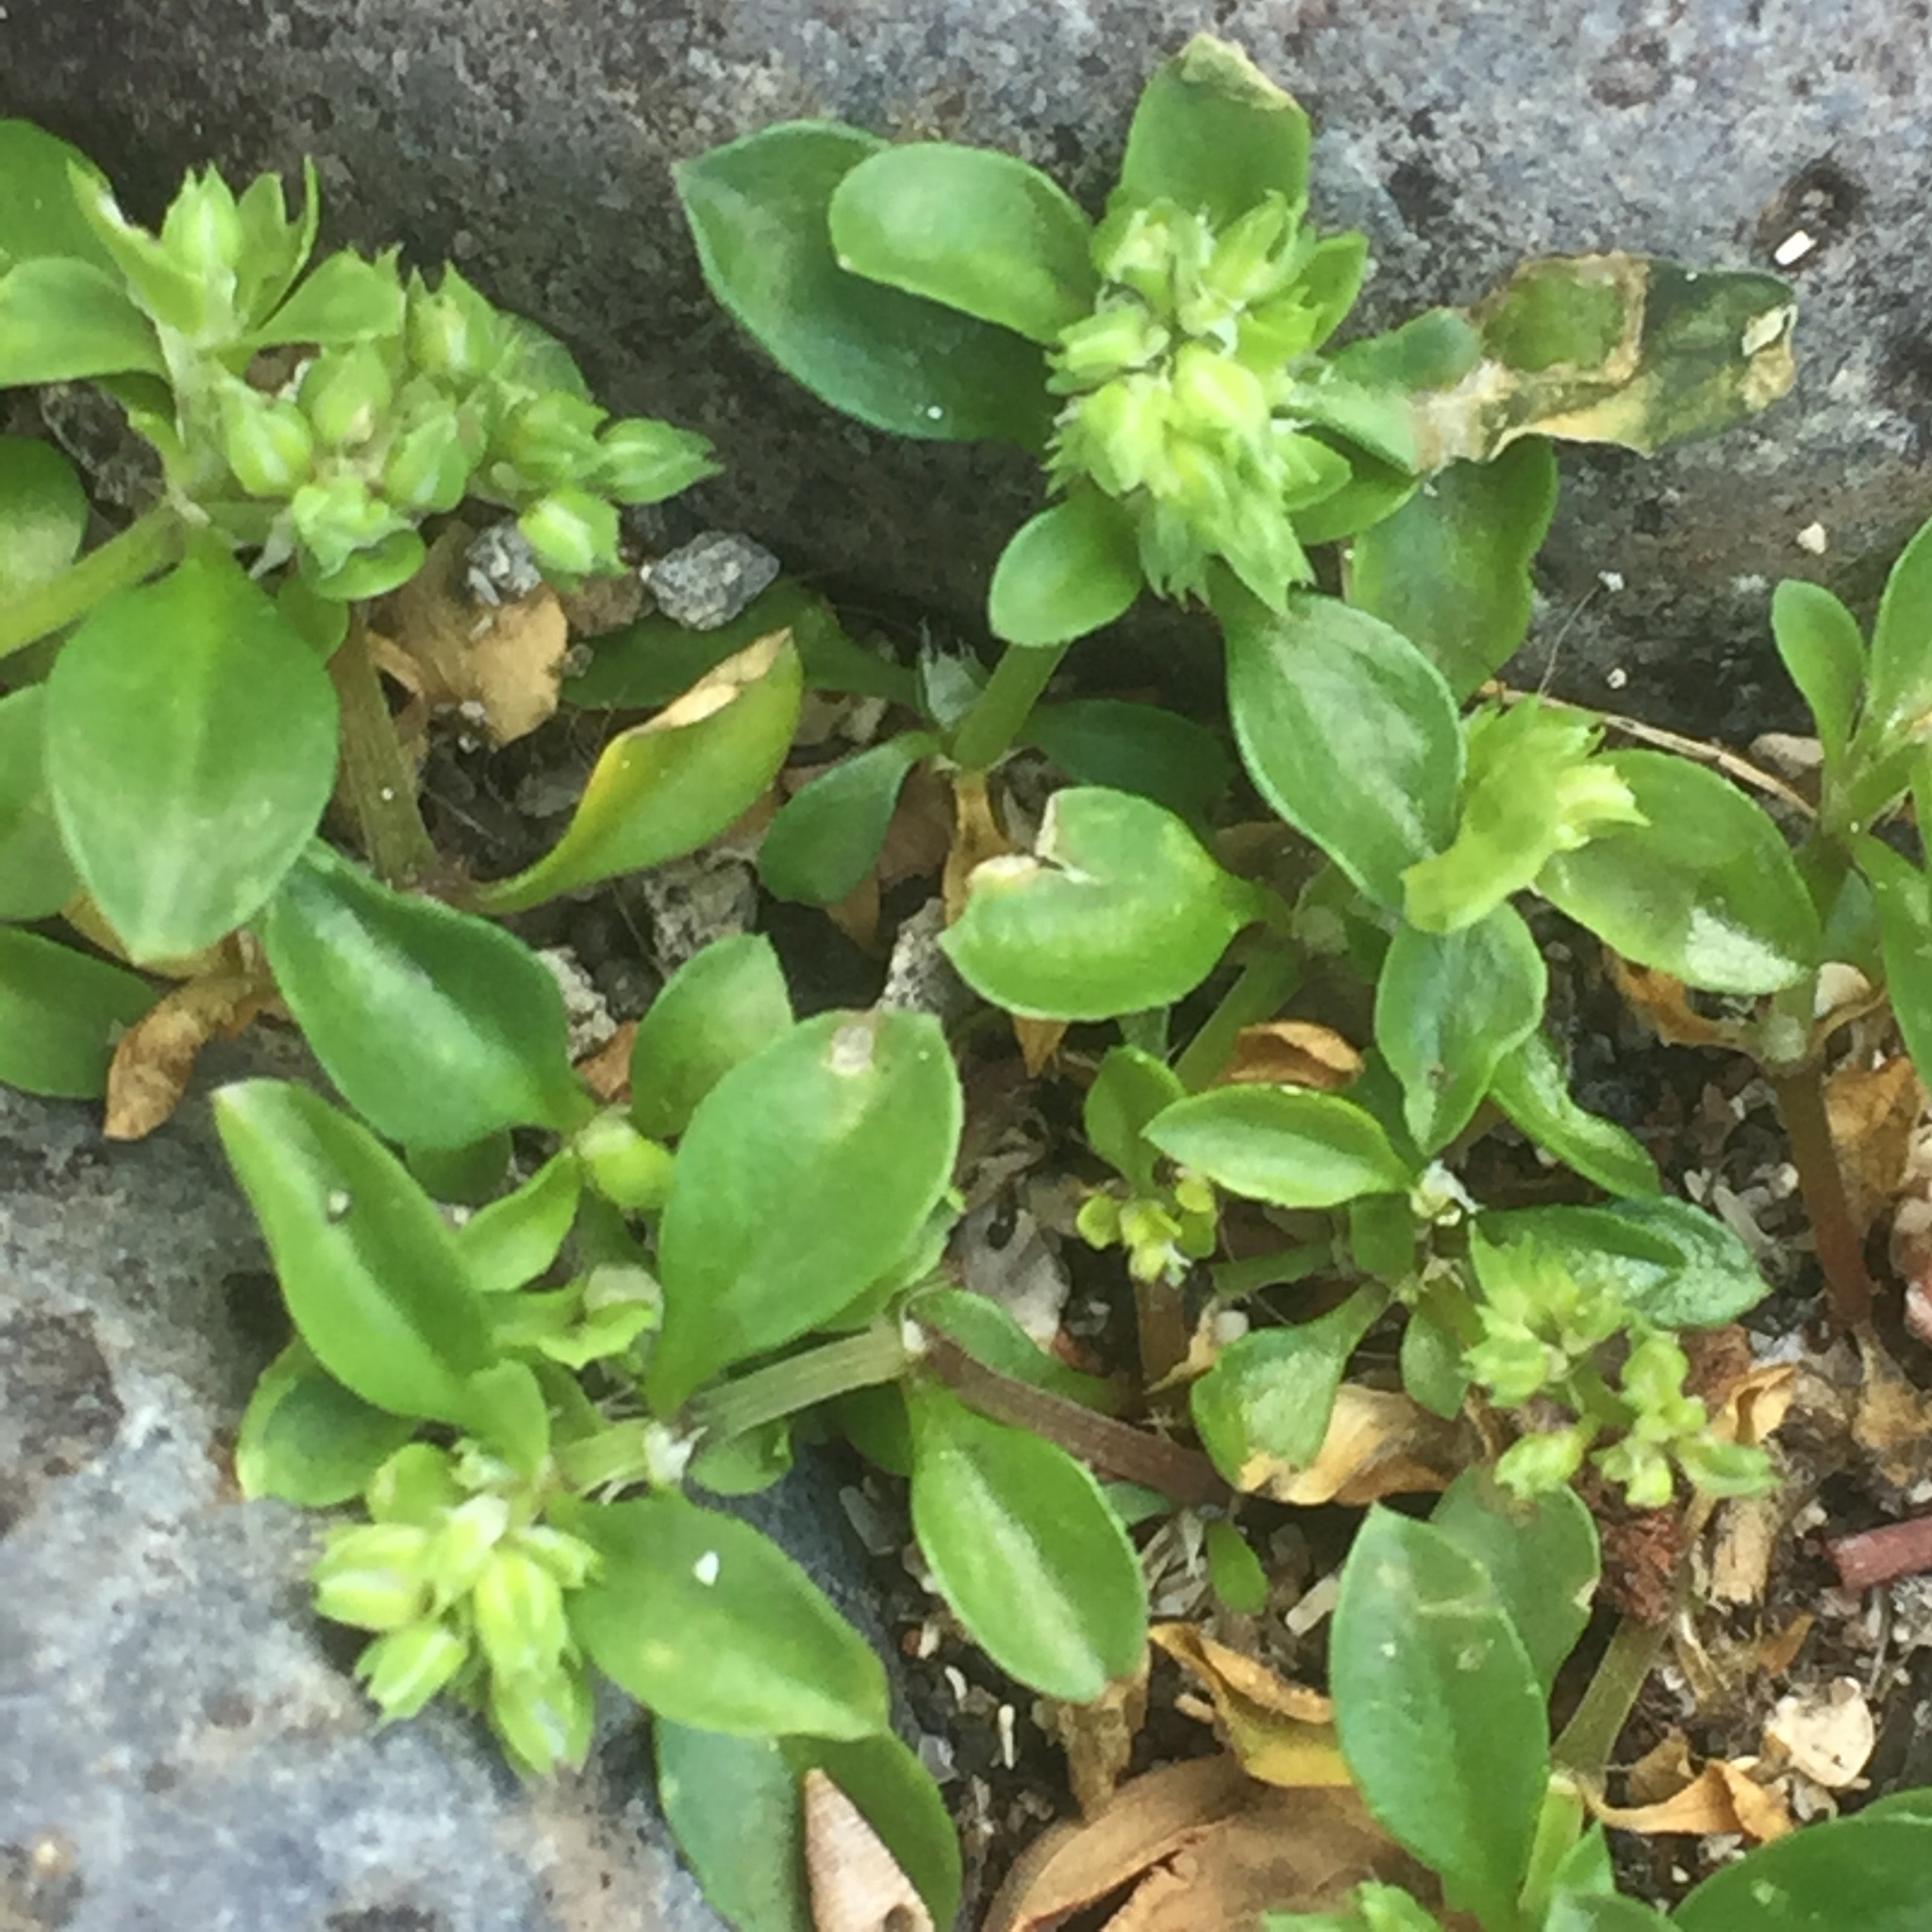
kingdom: Plantae
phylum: Tracheophyta
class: Magnoliopsida
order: Caryophyllales
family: Caryophyllaceae
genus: Polycarpon
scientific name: Polycarpon tetraphyllum
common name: Four-leaved all-seed
